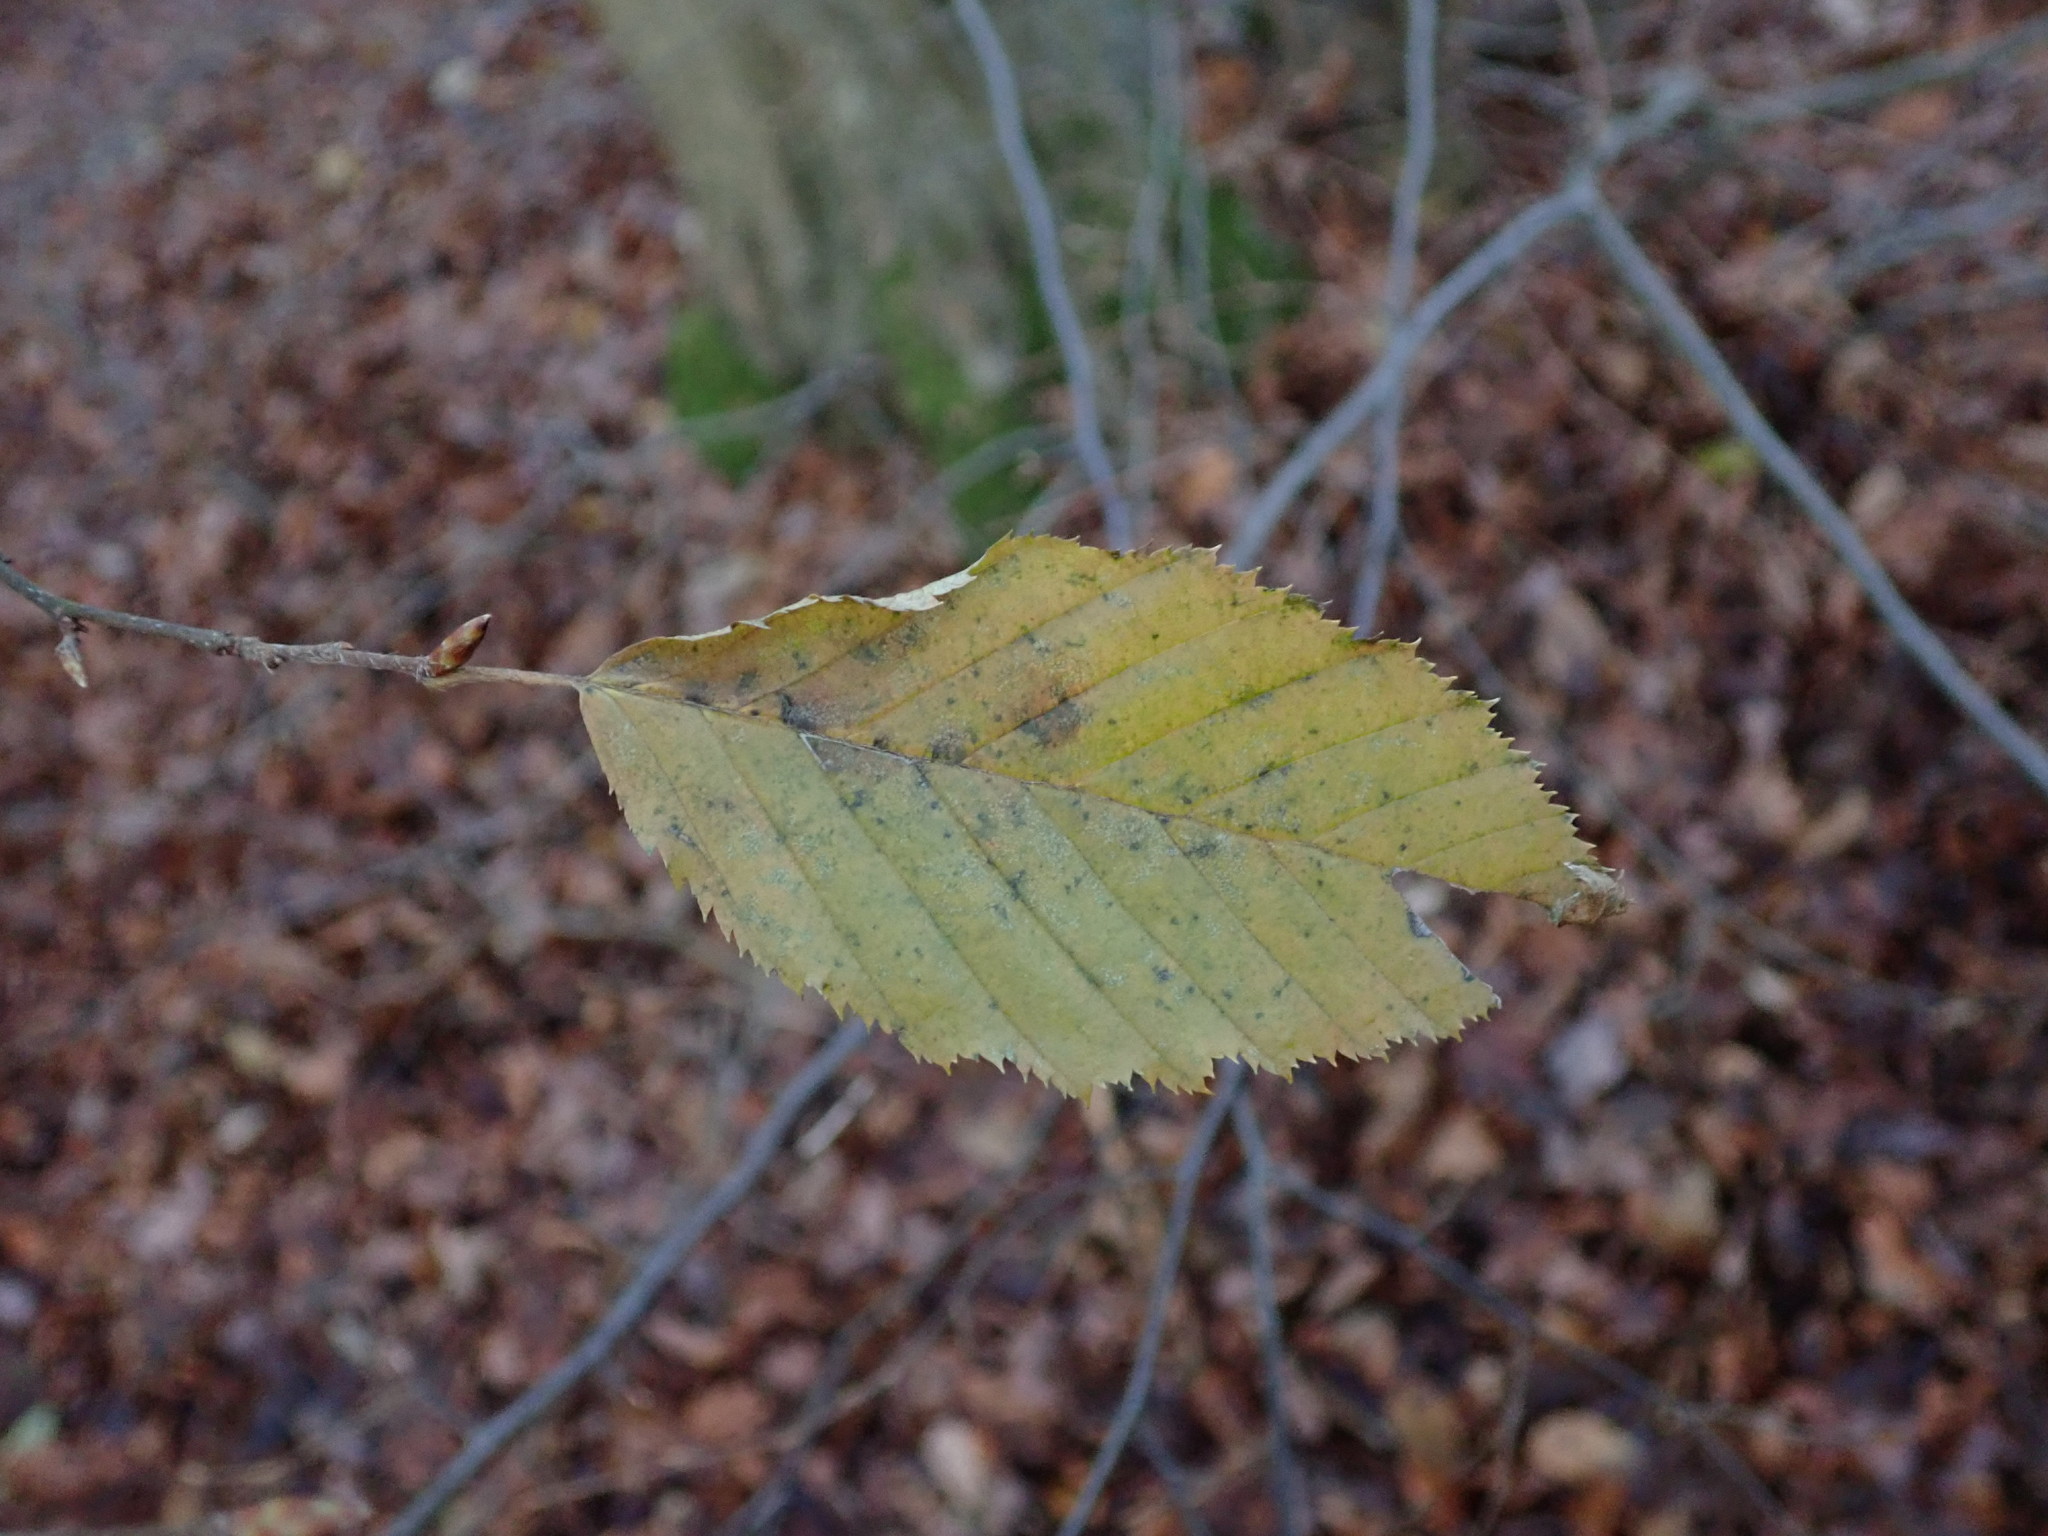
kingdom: Plantae
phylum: Tracheophyta
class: Magnoliopsida
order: Fagales
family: Betulaceae
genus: Carpinus
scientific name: Carpinus betulus
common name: Hornbeam
